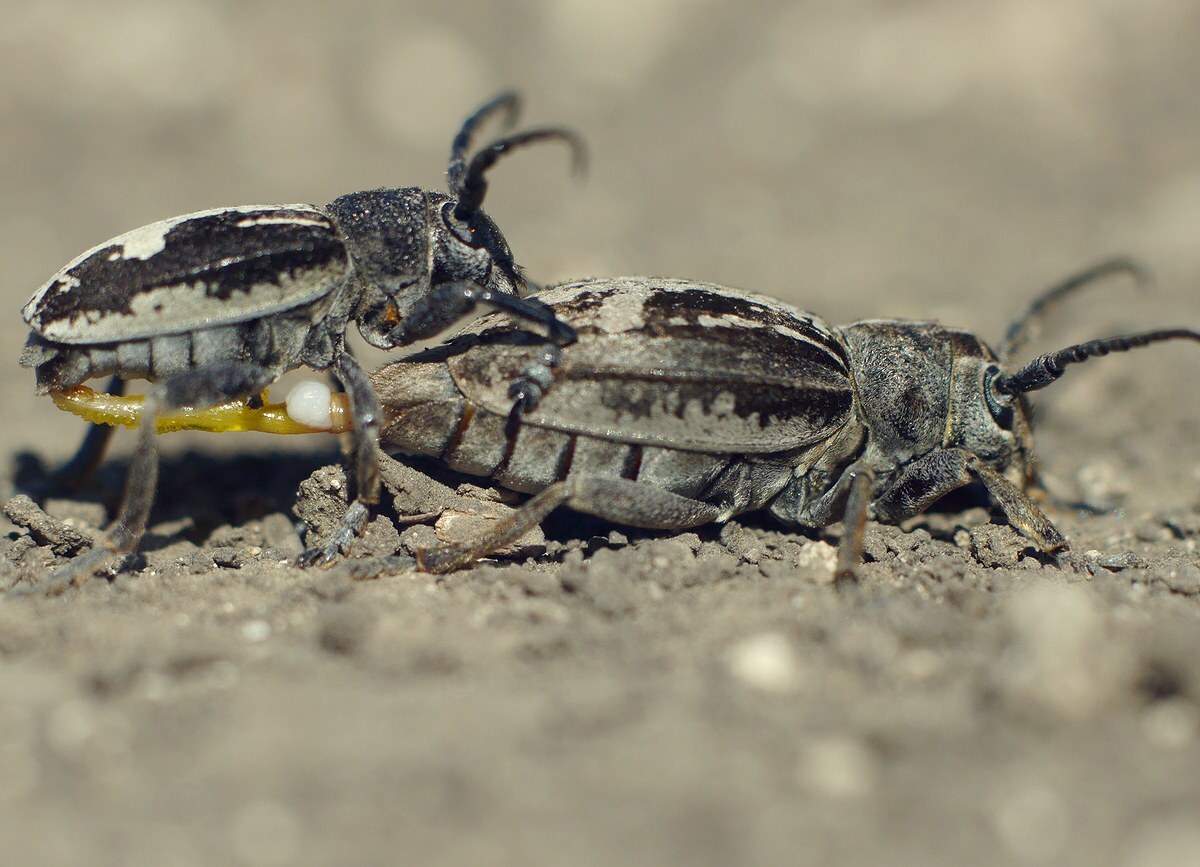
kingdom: Animalia
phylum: Arthropoda
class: Insecta
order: Coleoptera
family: Cerambycidae
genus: Dorcadion
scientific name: Dorcadion equestre
